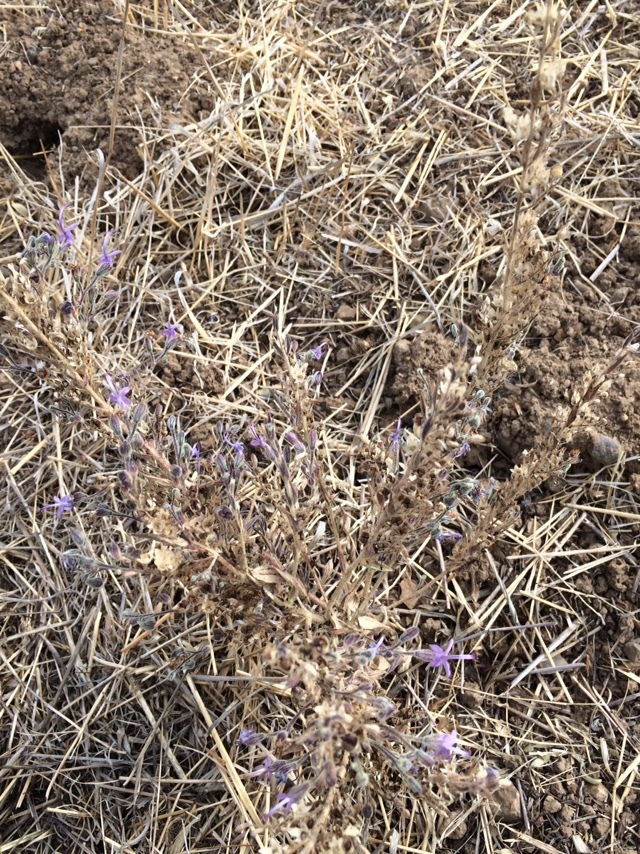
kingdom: Plantae
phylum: Tracheophyta
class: Magnoliopsida
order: Lamiales
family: Lamiaceae
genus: Trichostema
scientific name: Trichostema lanceolatum
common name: Vinegar-weed
